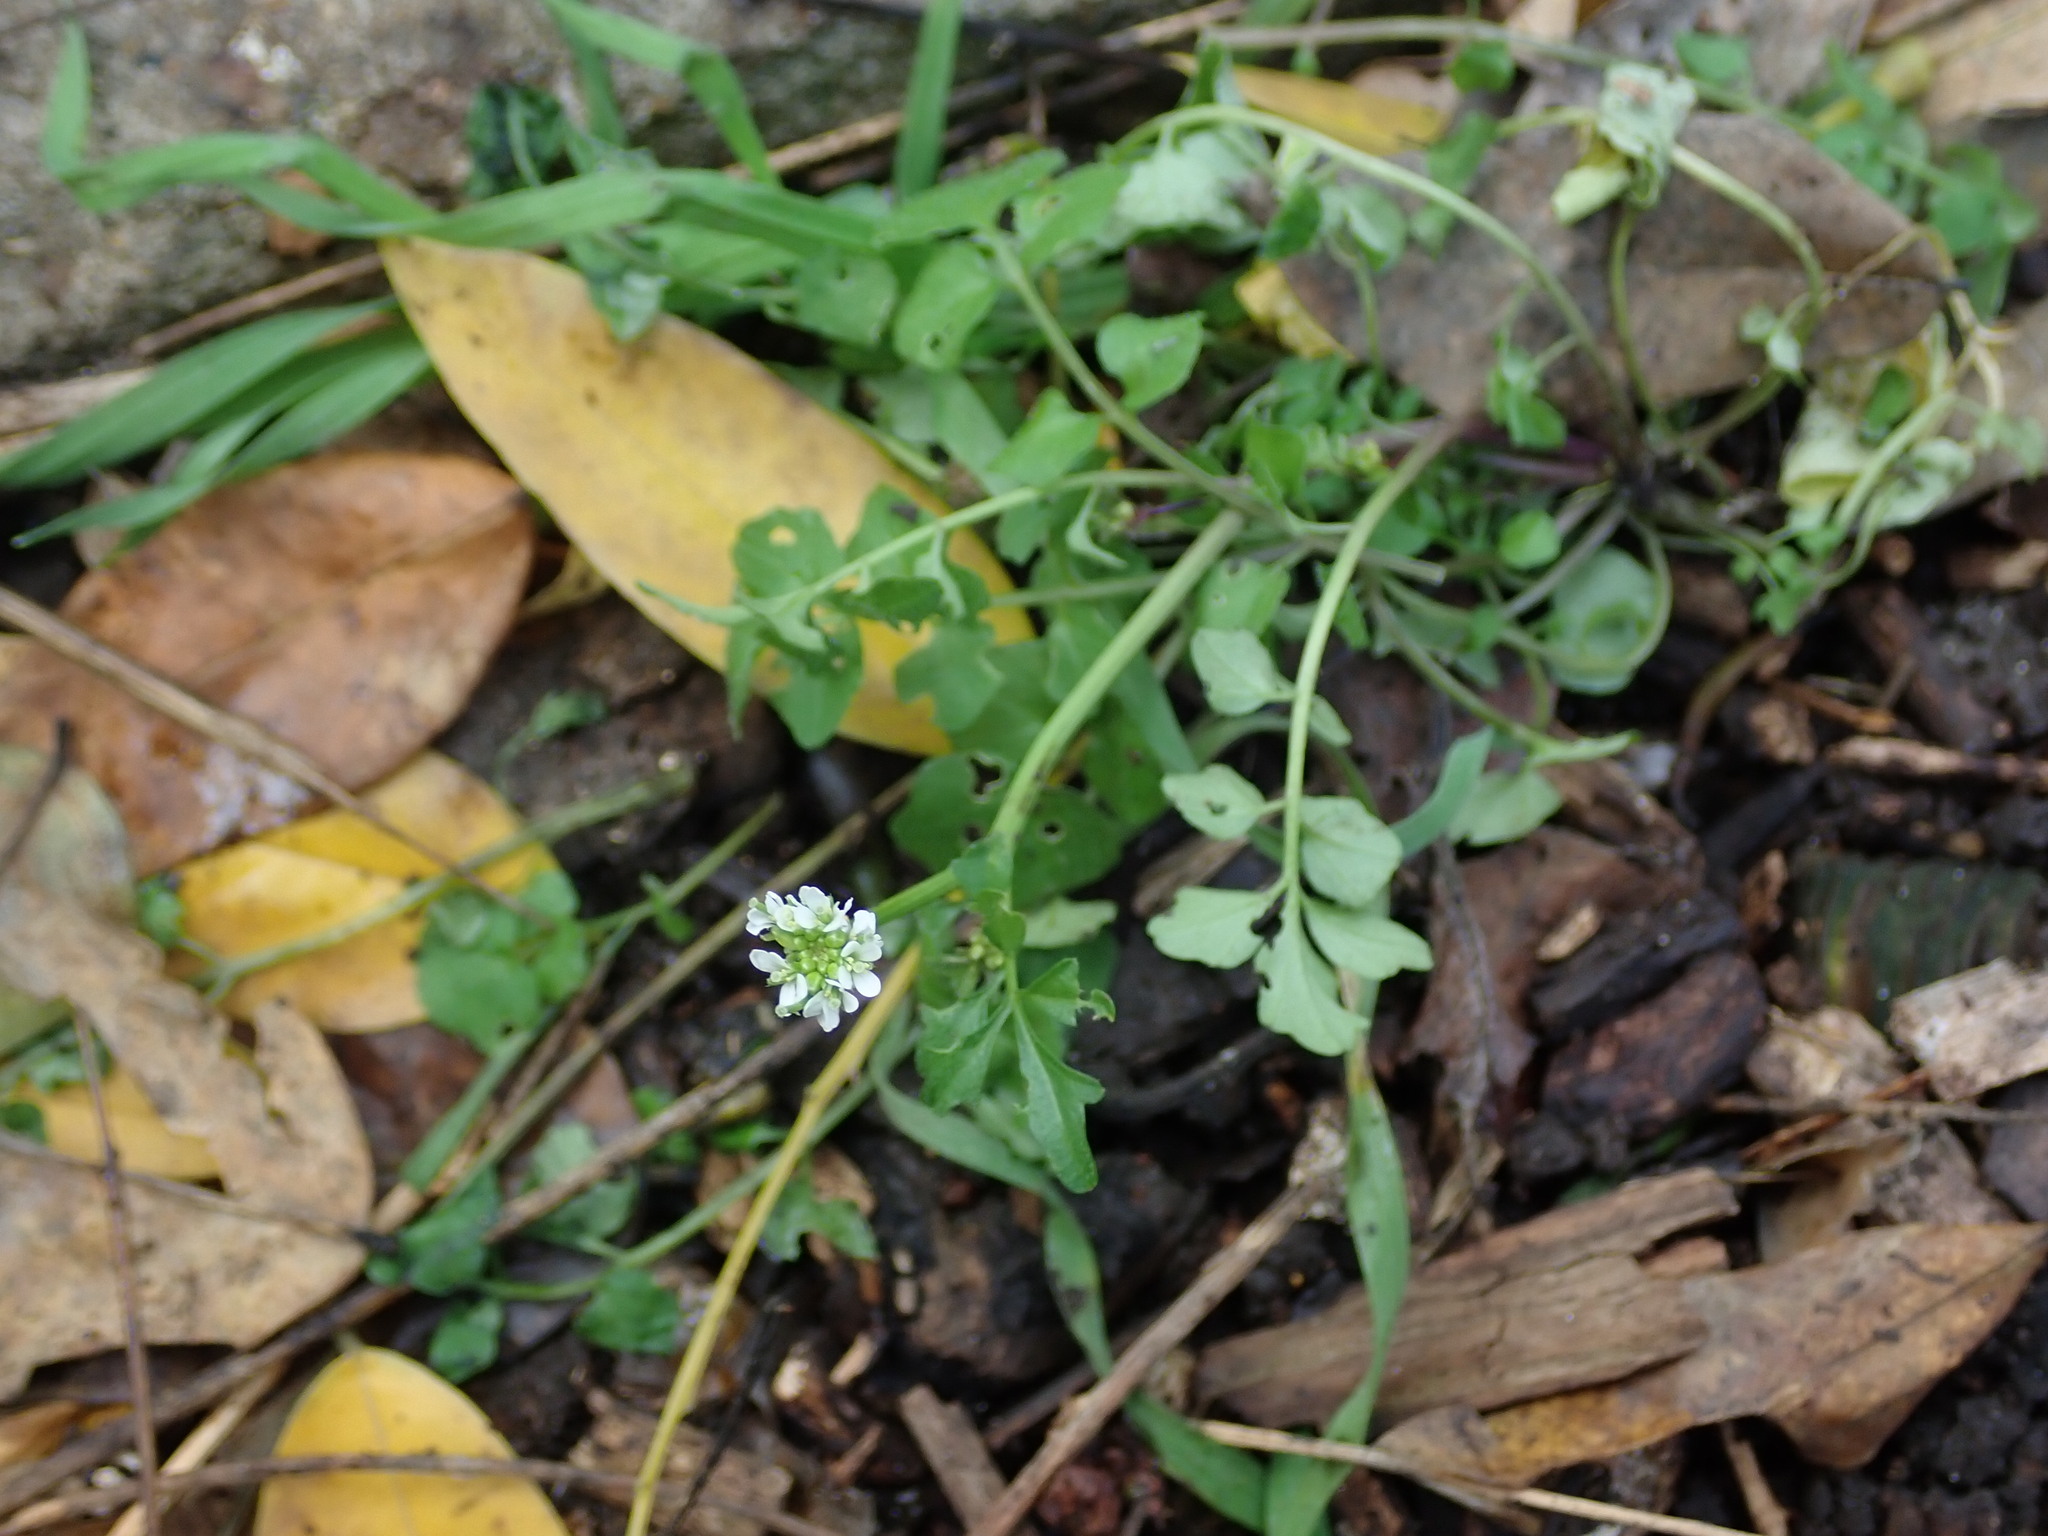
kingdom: Plantae
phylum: Tracheophyta
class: Magnoliopsida
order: Brassicales
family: Brassicaceae
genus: Cardamine
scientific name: Cardamine hirsuta
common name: Hairy bittercress
